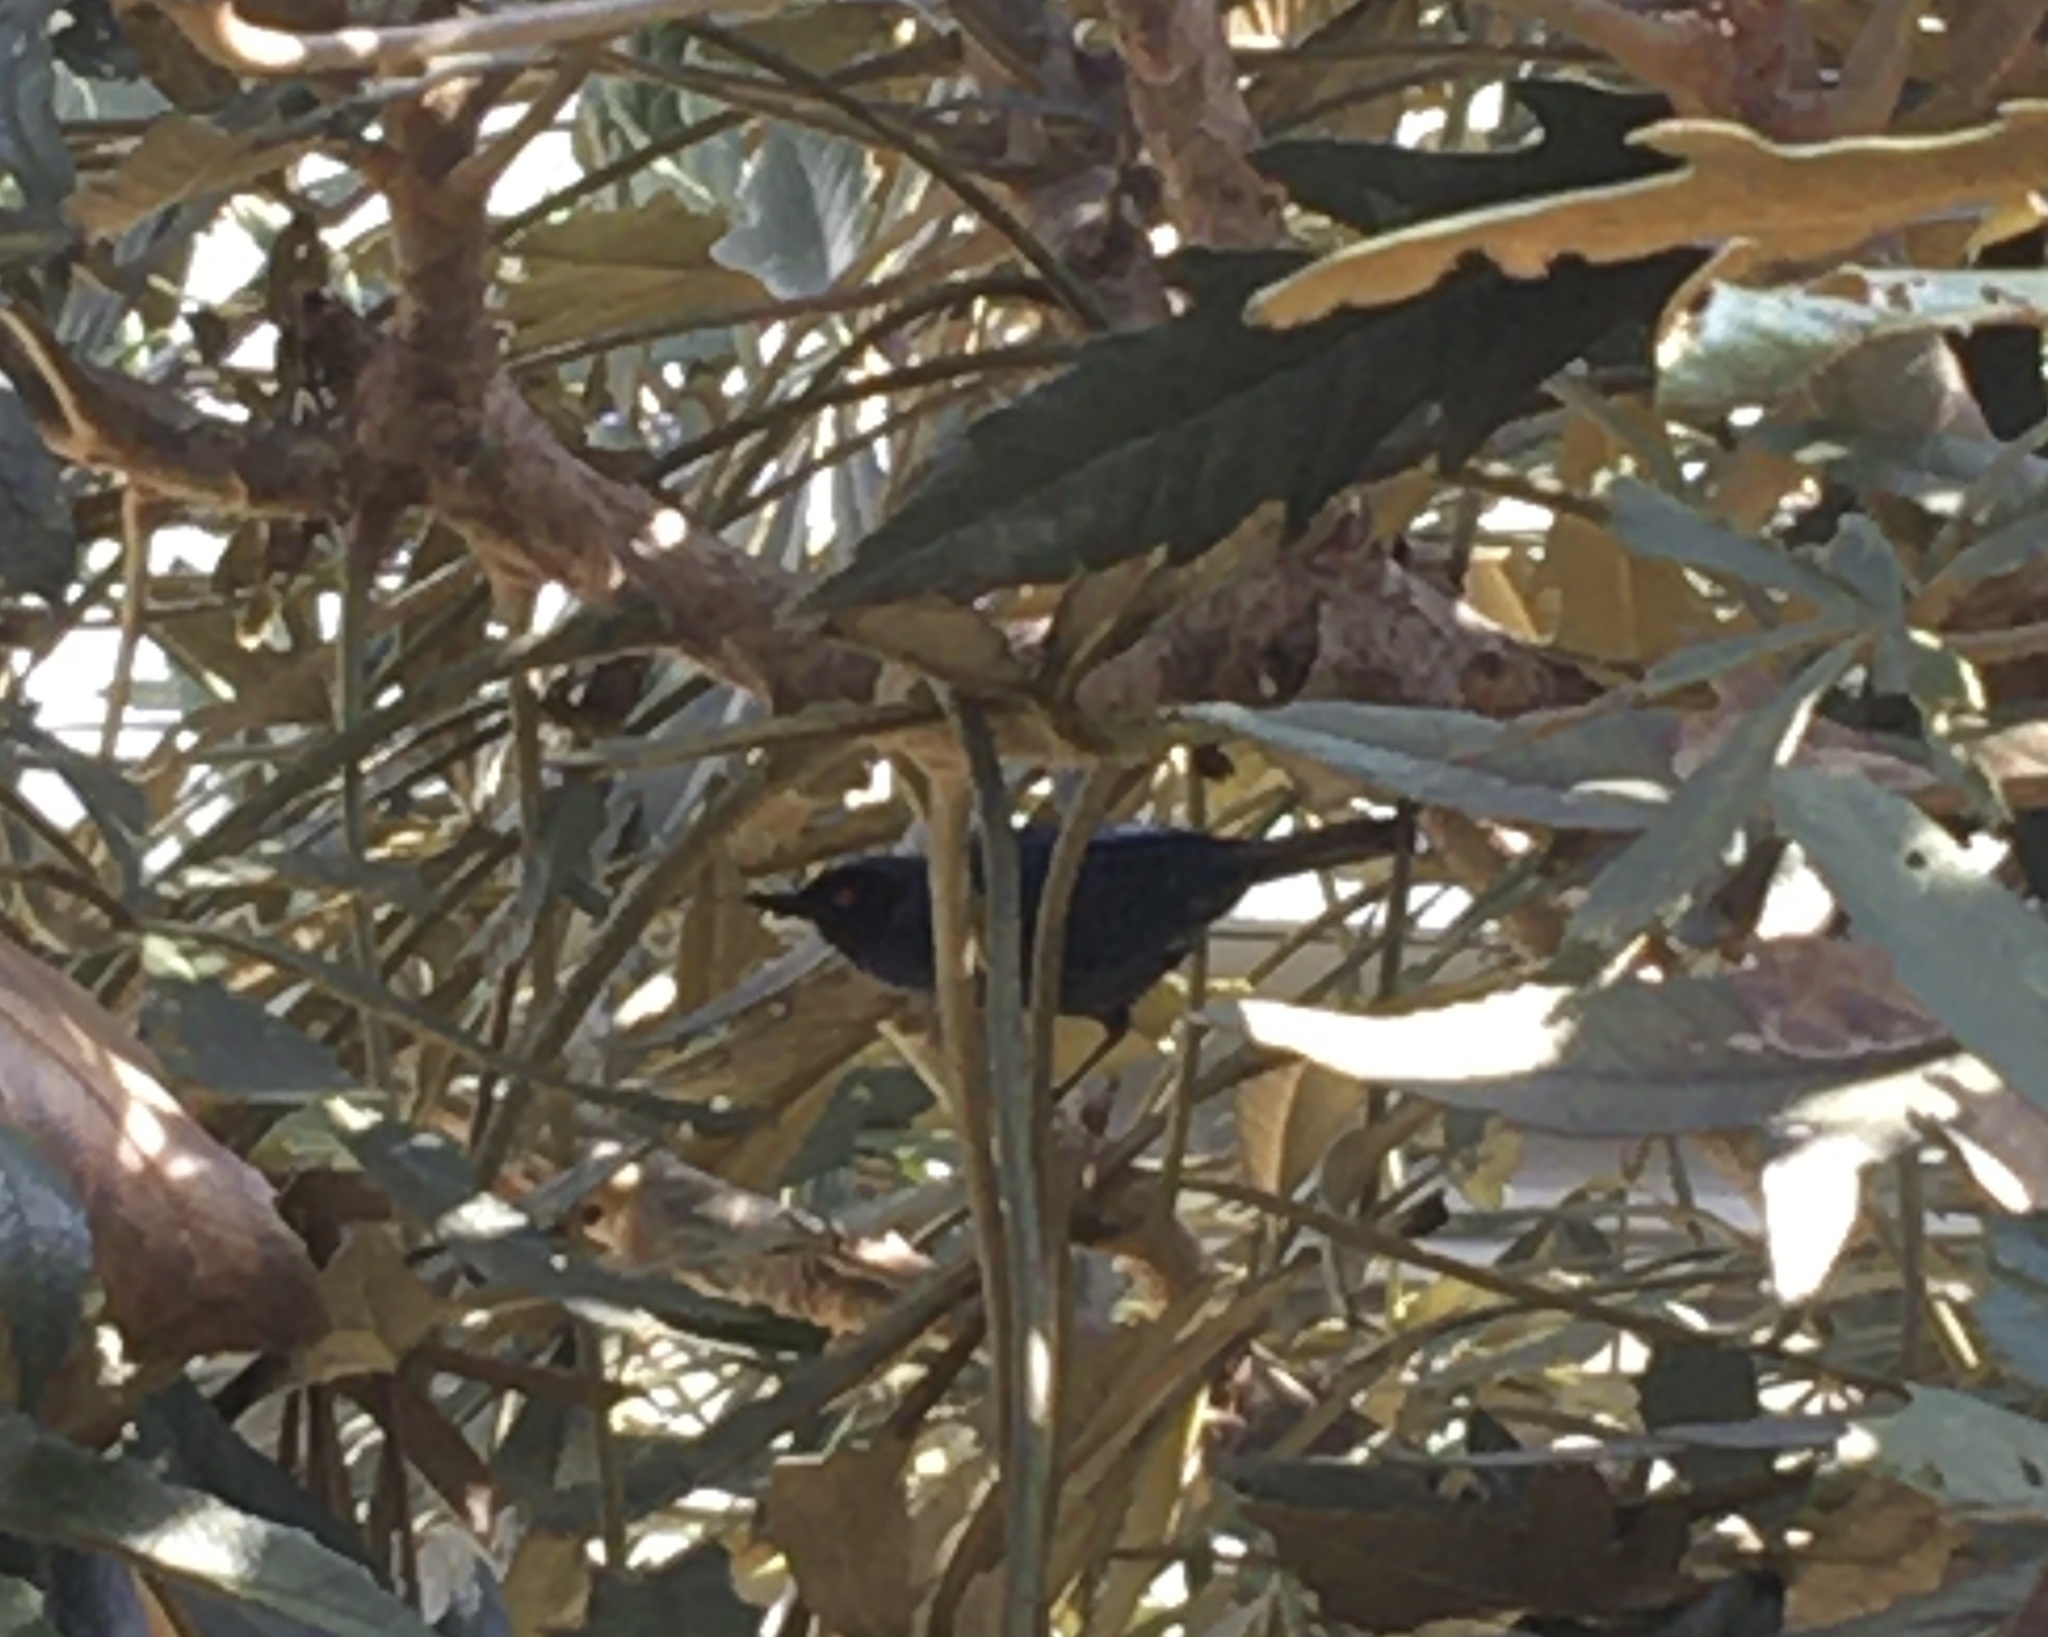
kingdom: Animalia
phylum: Chordata
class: Aves
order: Passeriformes
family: Thraupidae
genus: Diglossa
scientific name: Diglossa cyanea
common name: Masked flowerpiercer
